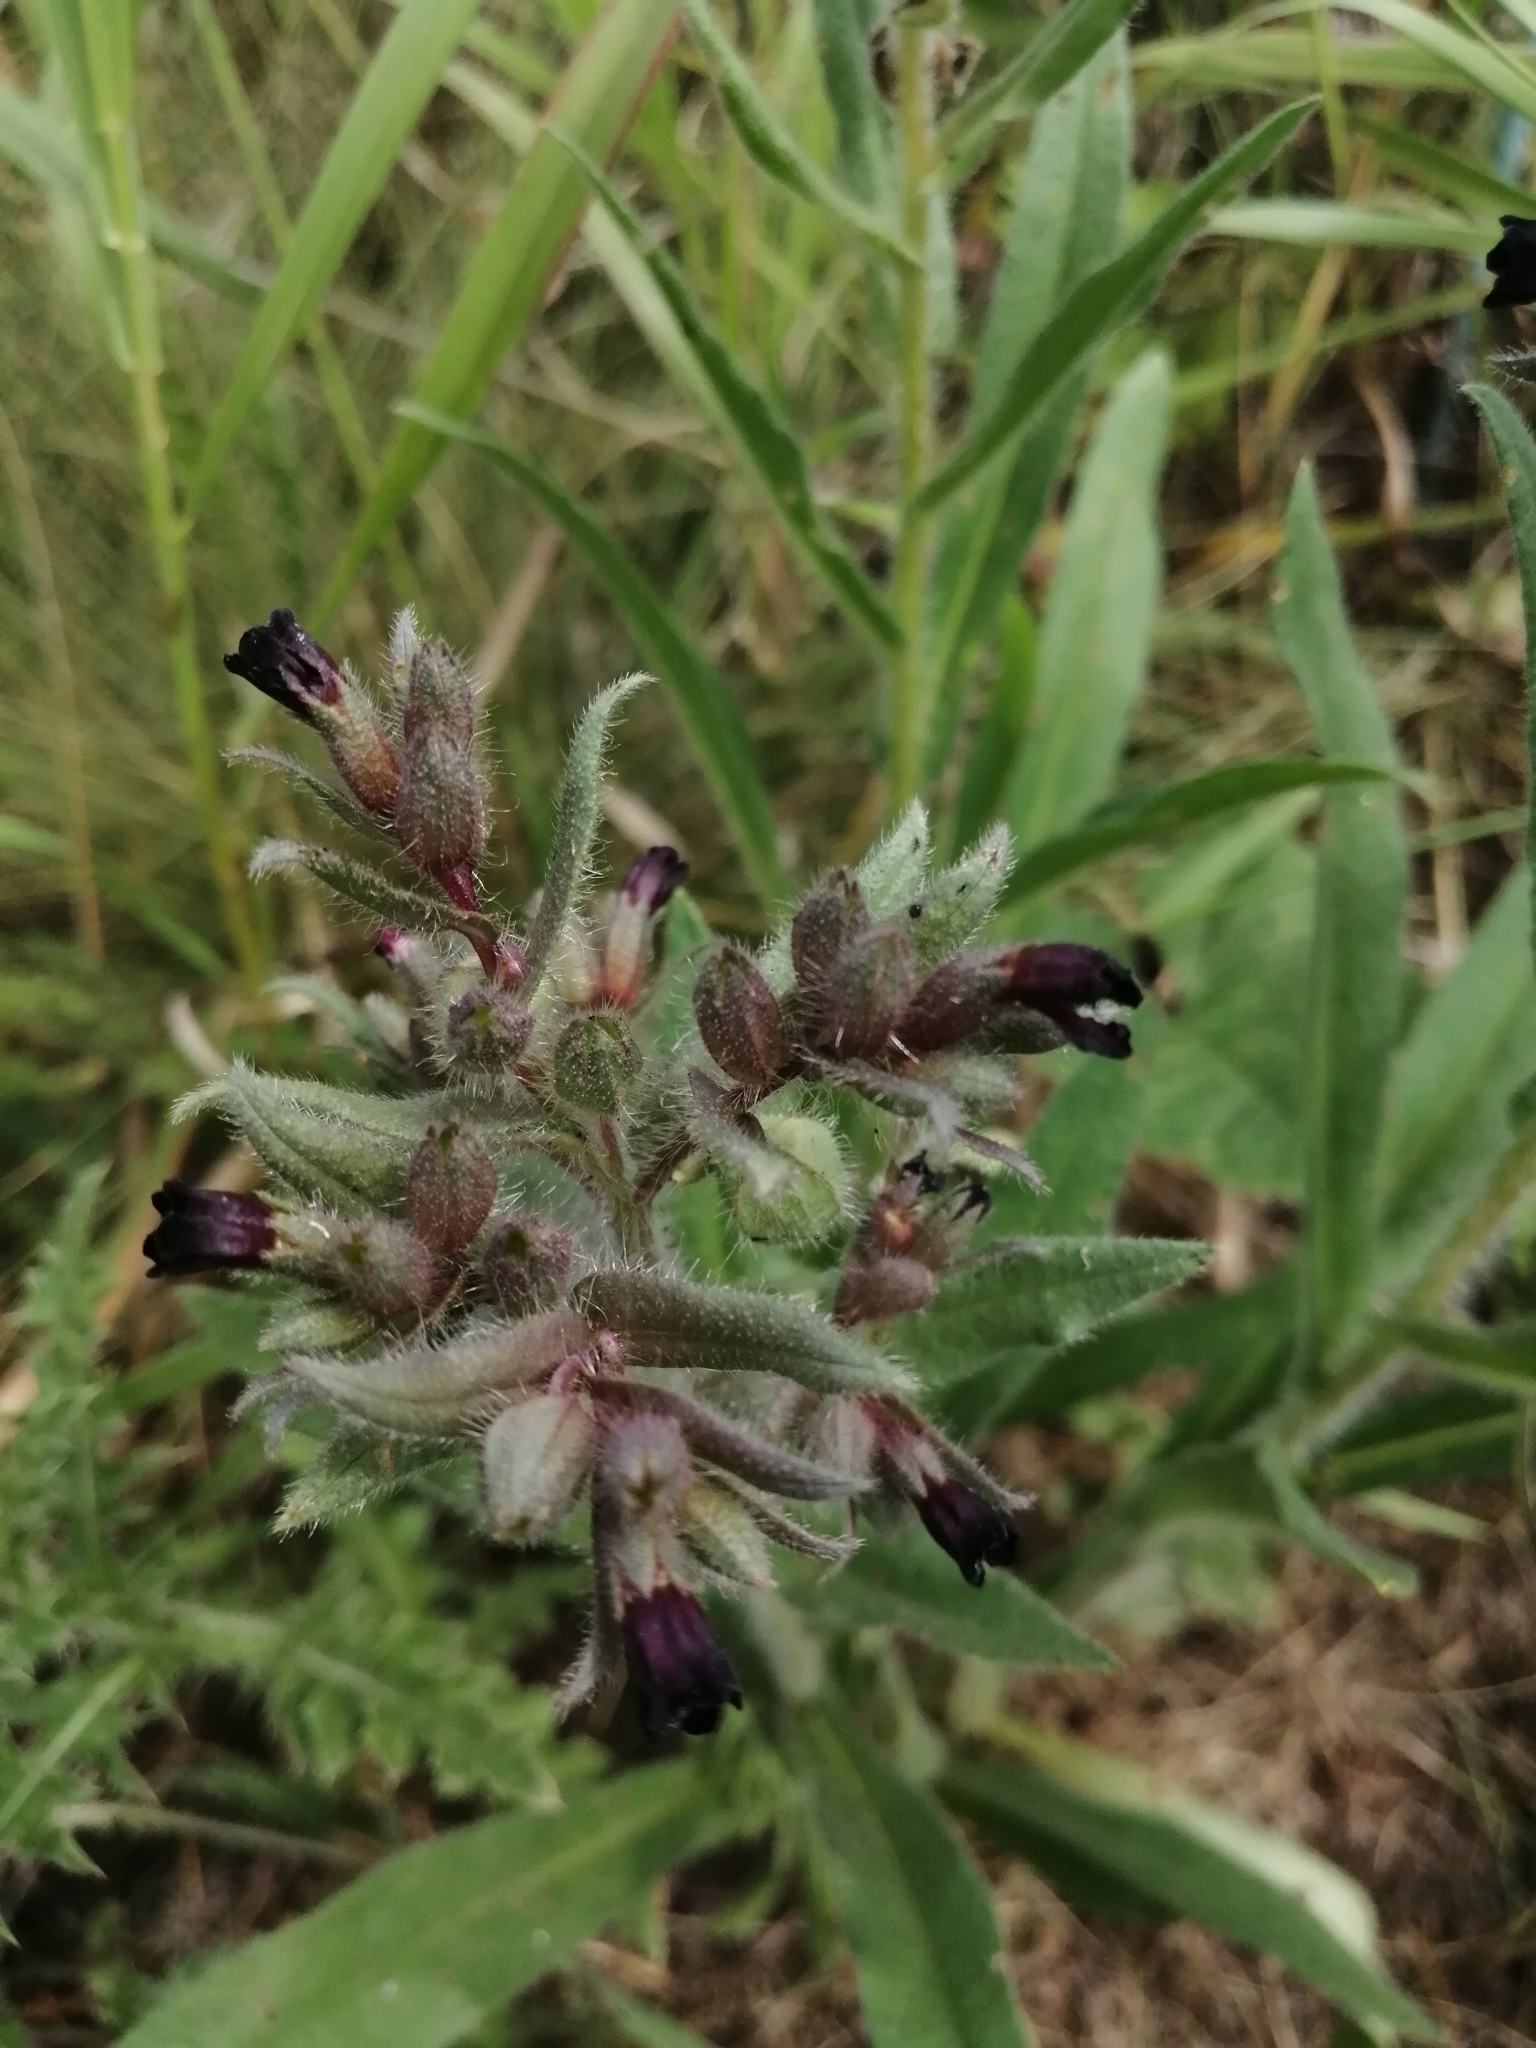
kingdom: Plantae
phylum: Tracheophyta
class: Magnoliopsida
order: Boraginales
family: Boraginaceae
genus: Nonea
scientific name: Nonea pulla
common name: Brown nonea
